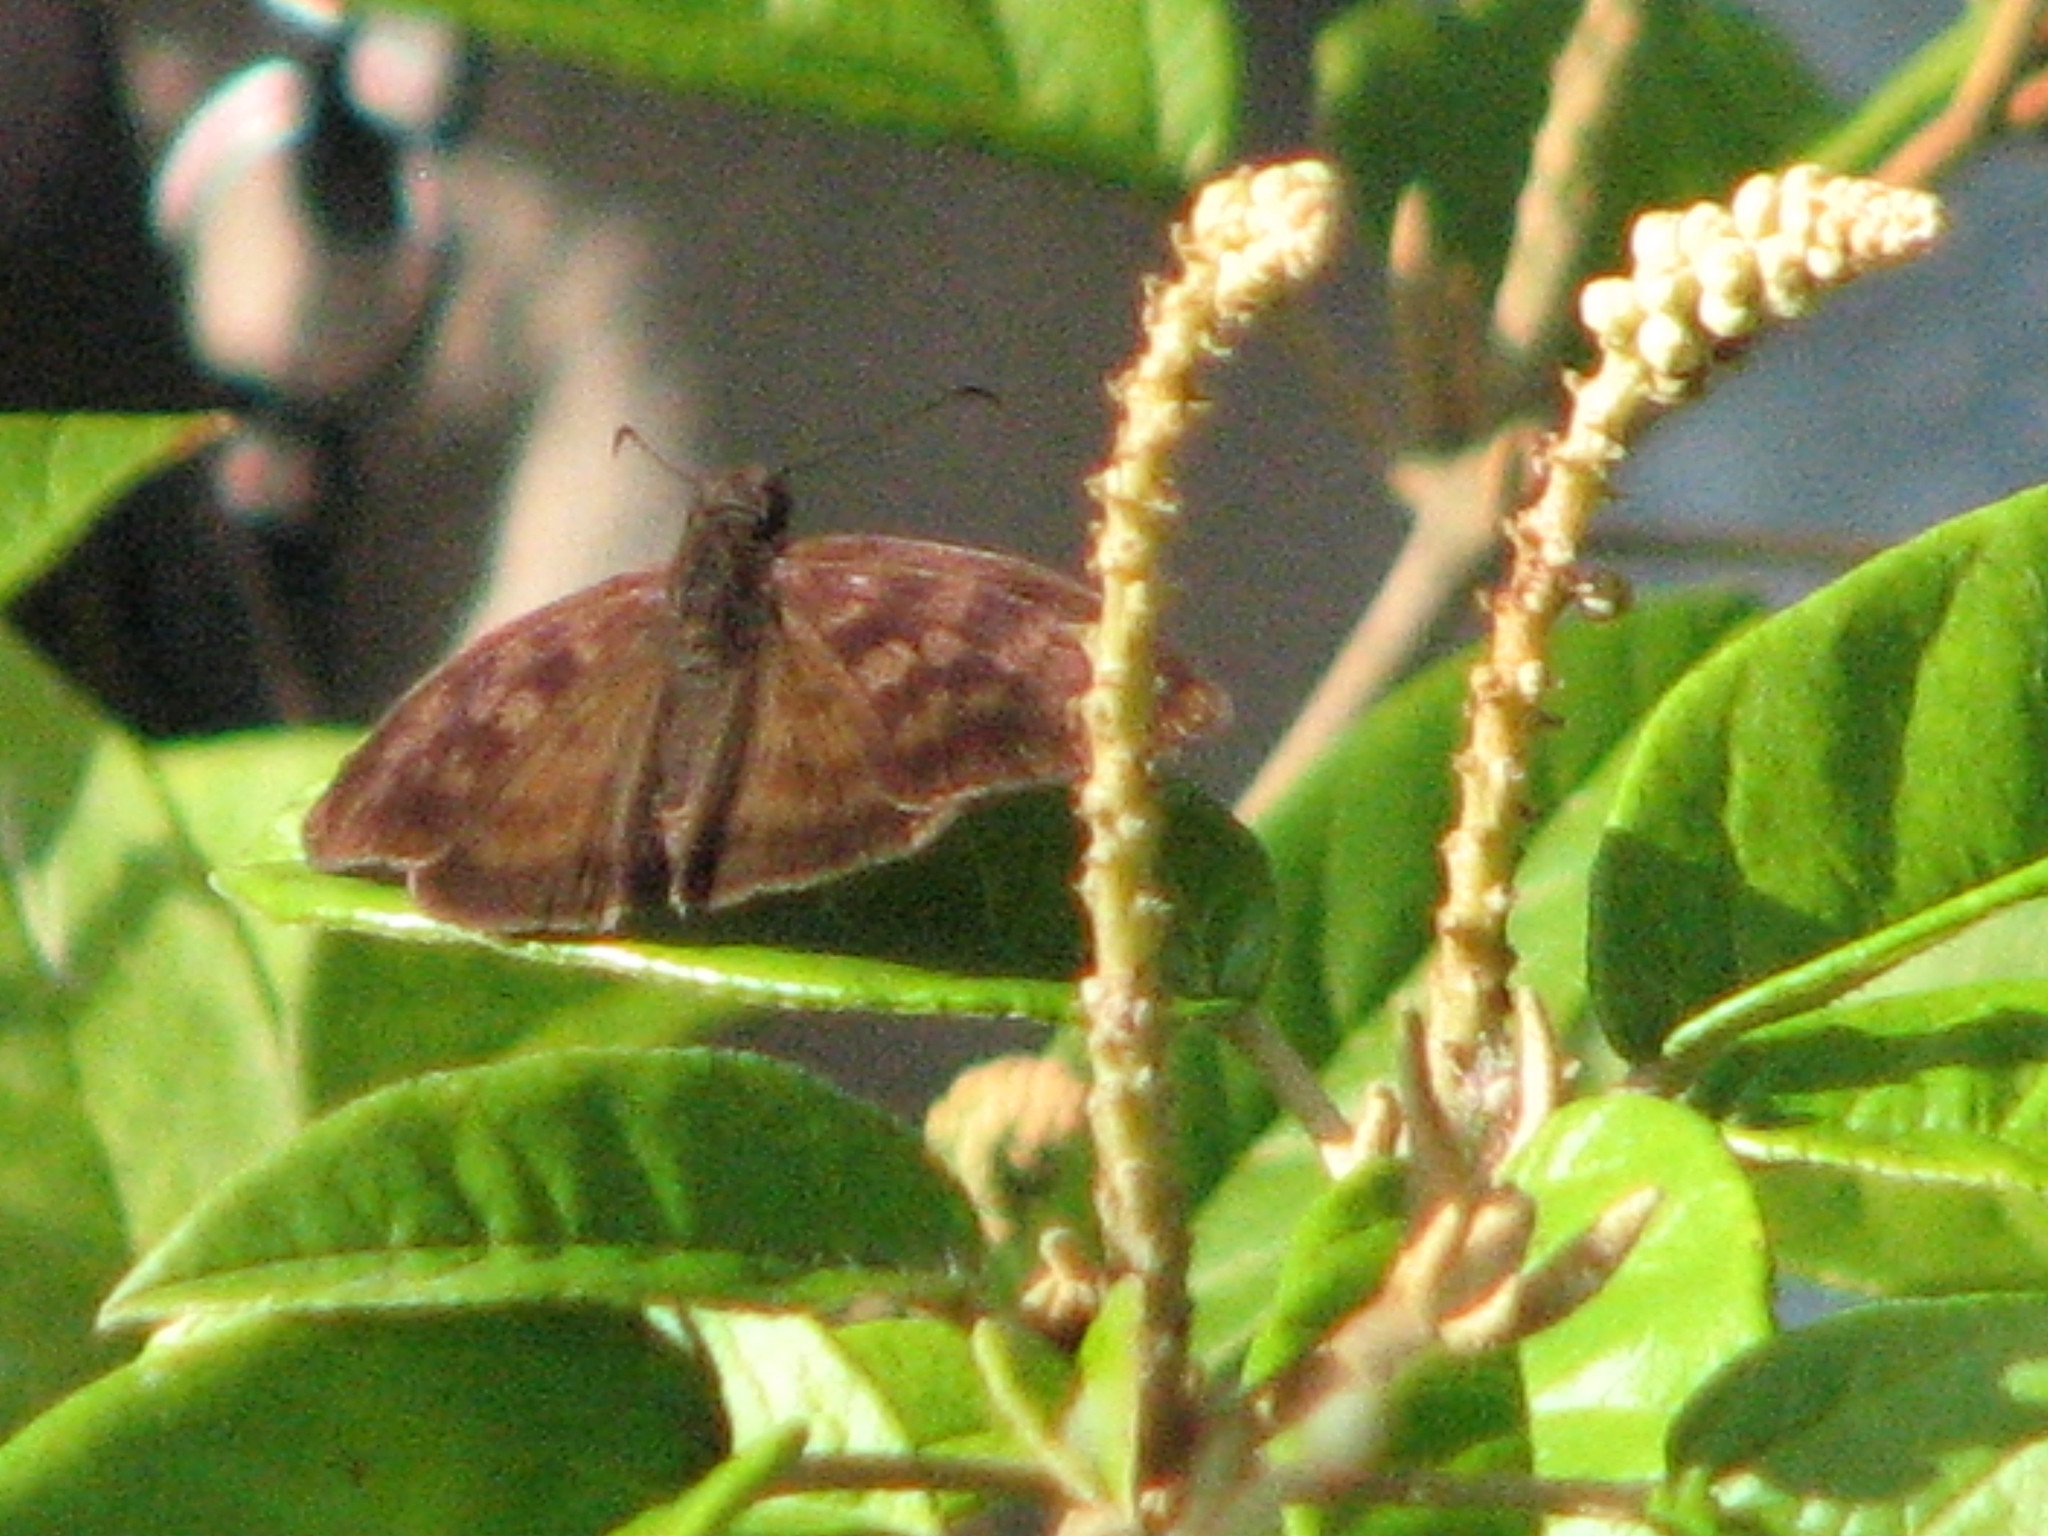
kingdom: Animalia
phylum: Arthropoda
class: Insecta
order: Lepidoptera
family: Hesperiidae
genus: Anastrus
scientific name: Anastrus Echelatus sempiternus
